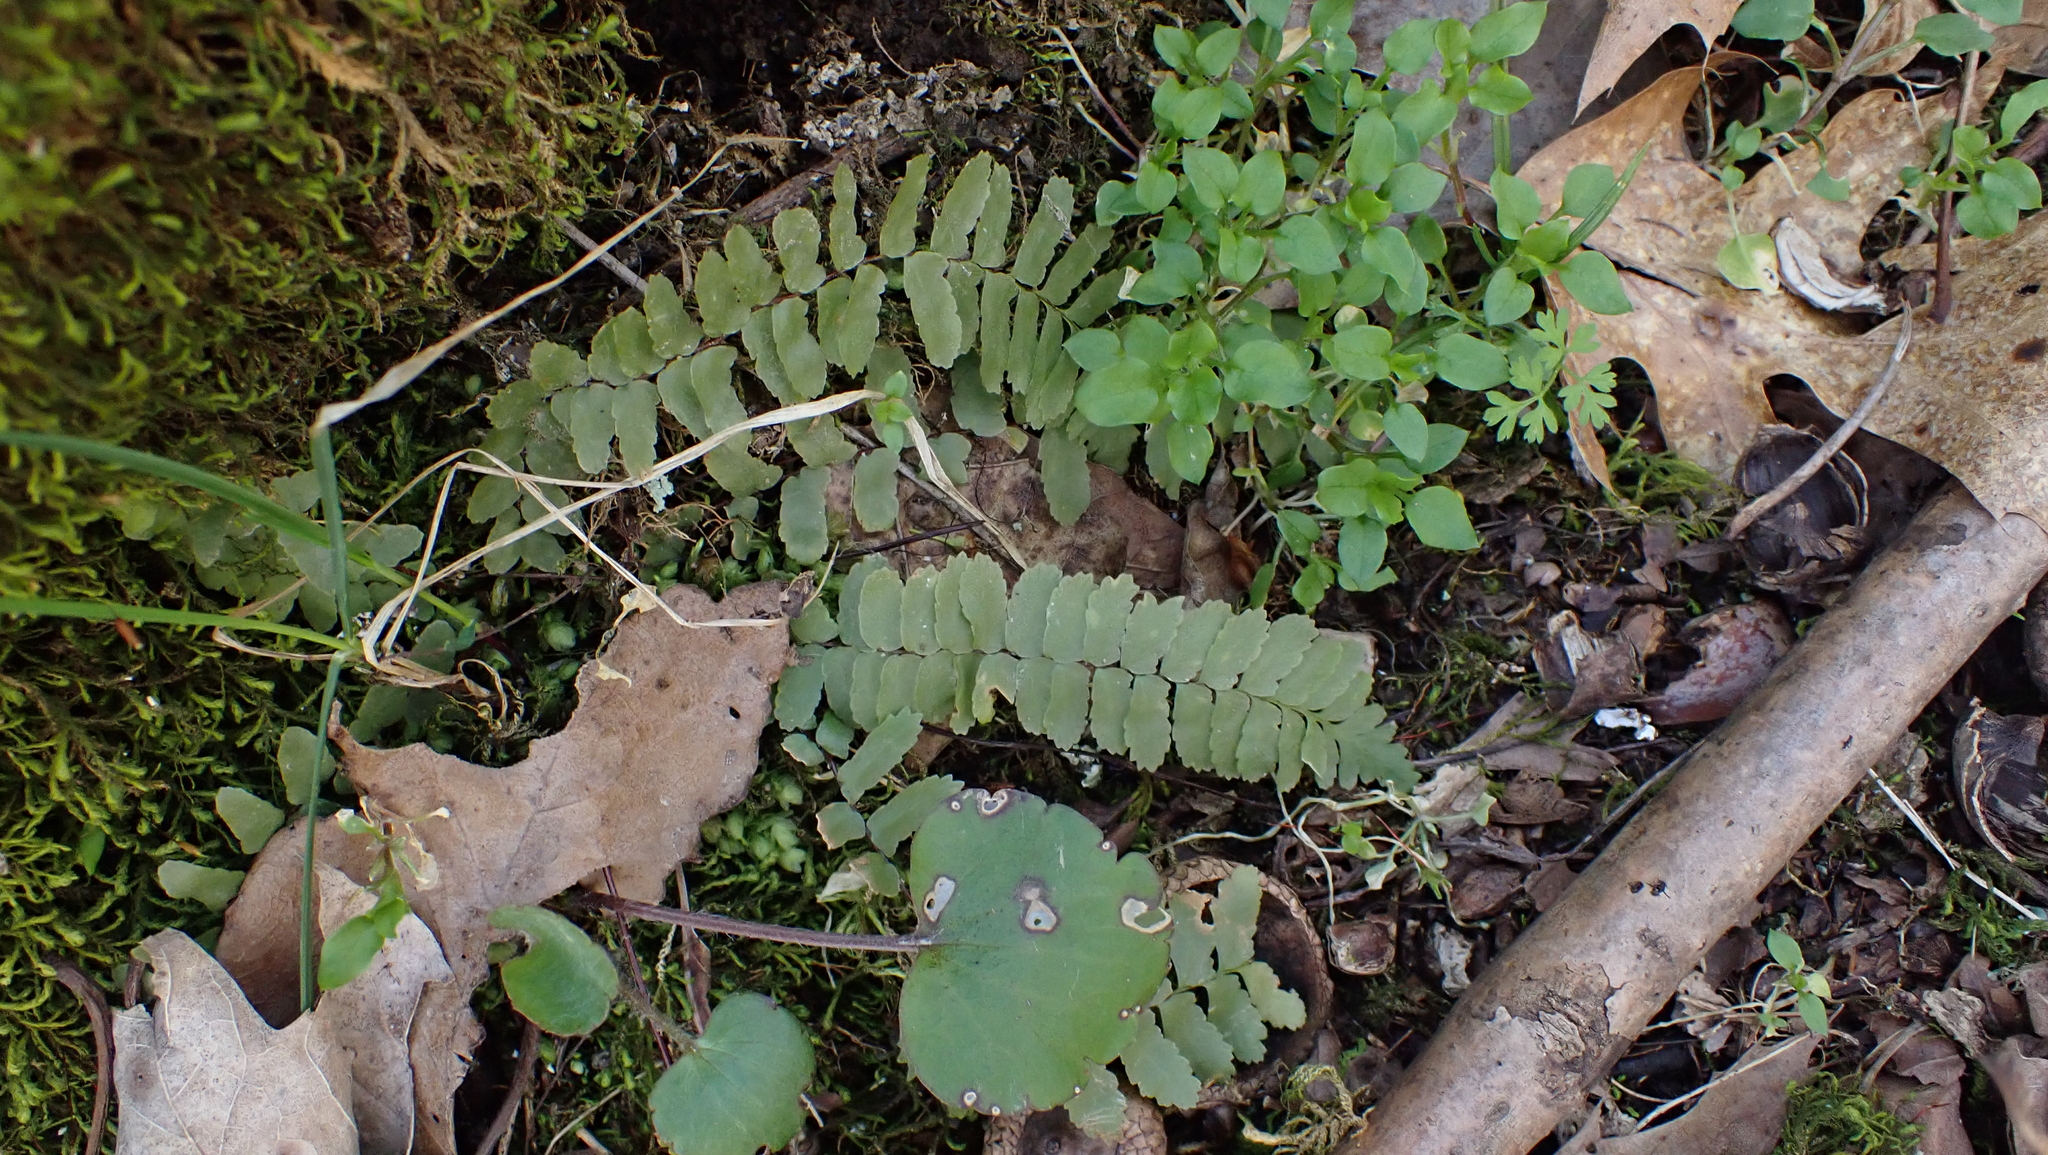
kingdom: Plantae
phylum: Tracheophyta
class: Polypodiopsida
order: Polypodiales
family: Aspleniaceae
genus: Asplenium
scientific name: Asplenium platyneuron
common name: Ebony spleenwort
